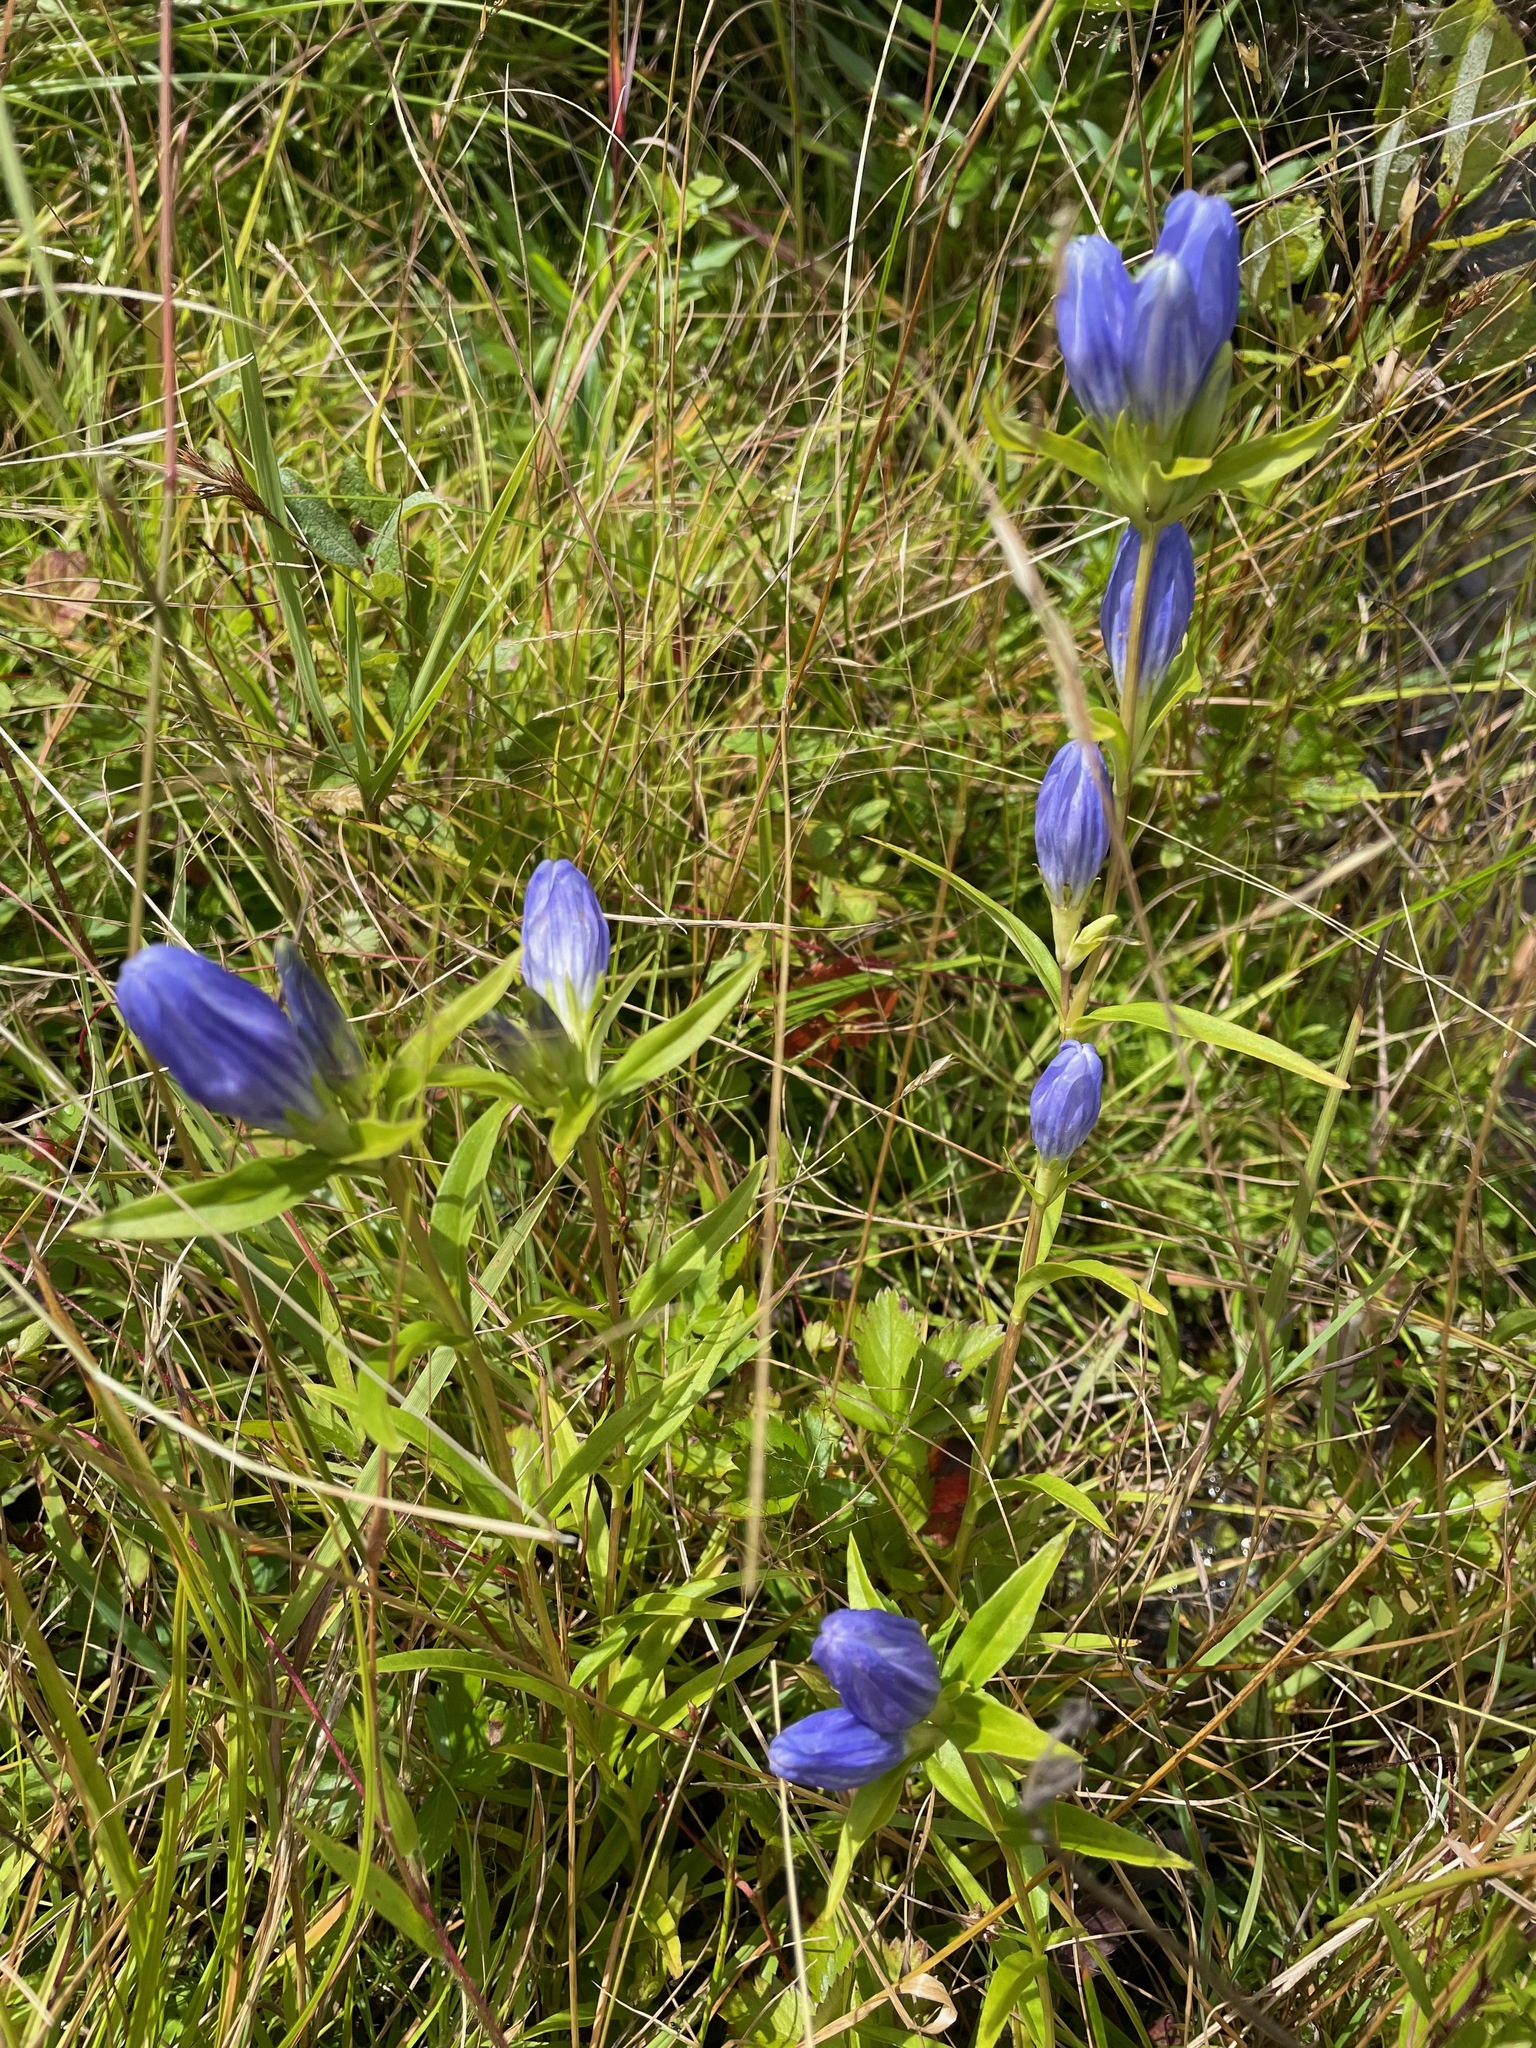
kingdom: Plantae
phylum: Tracheophyta
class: Magnoliopsida
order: Gentianales
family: Gentianaceae
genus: Gentiana
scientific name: Gentiana linearis
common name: Bastard gentian
